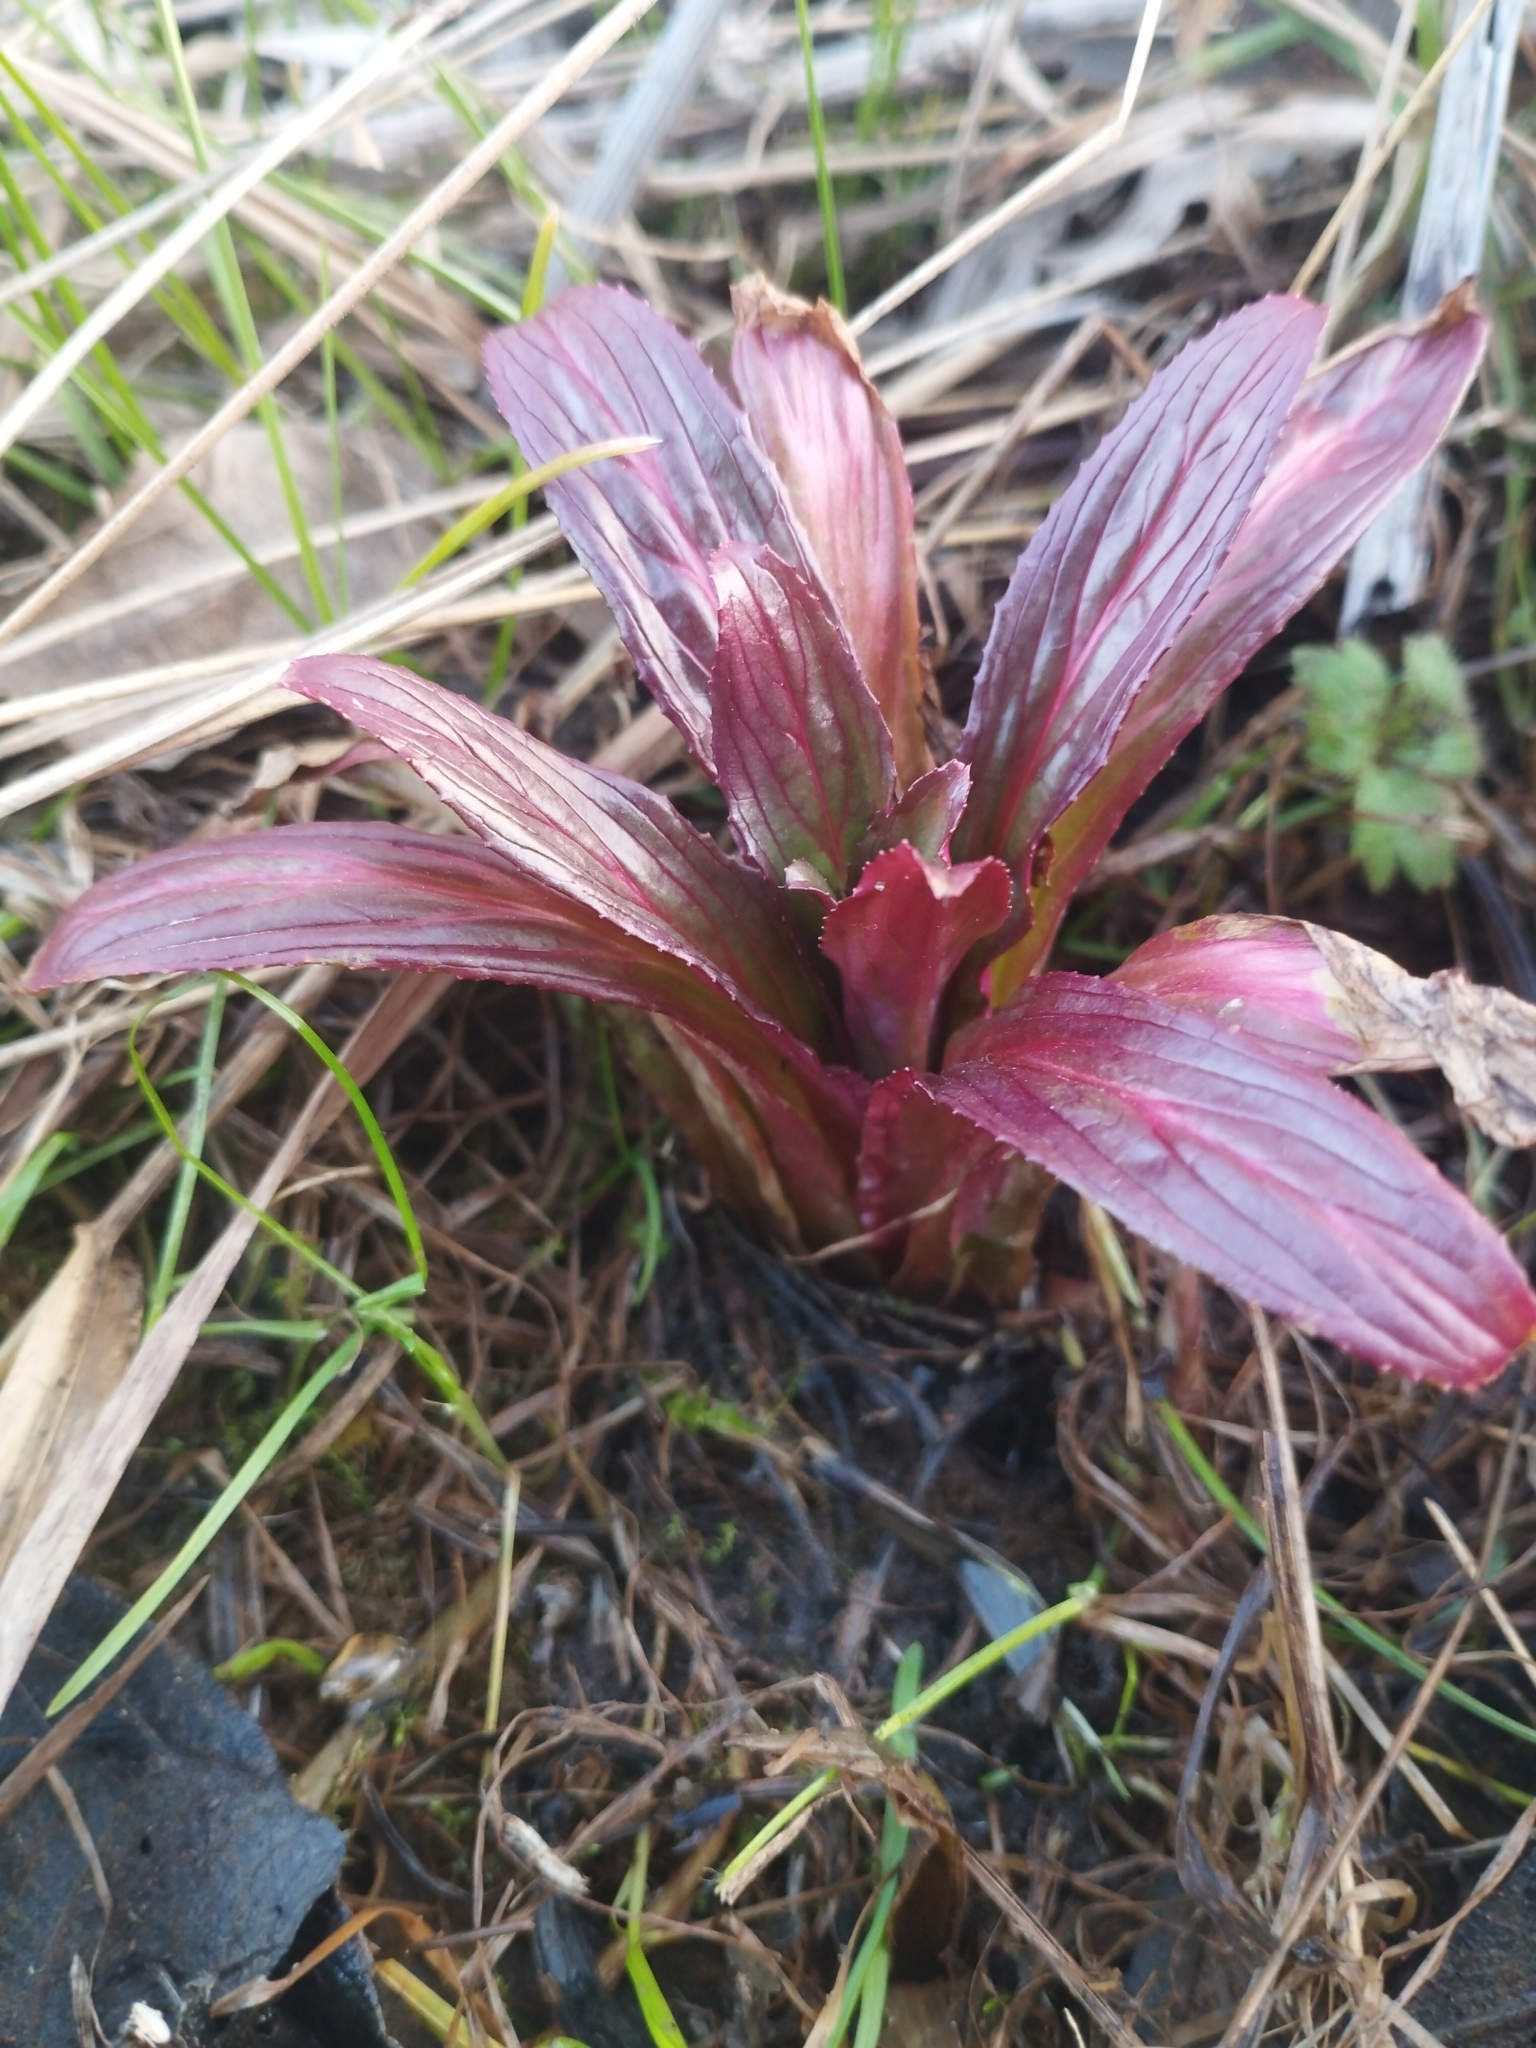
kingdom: Plantae
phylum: Tracheophyta
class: Magnoliopsida
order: Myrtales
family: Onagraceae
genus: Epilobium
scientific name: Epilobium hirsutum
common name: Great willowherb
